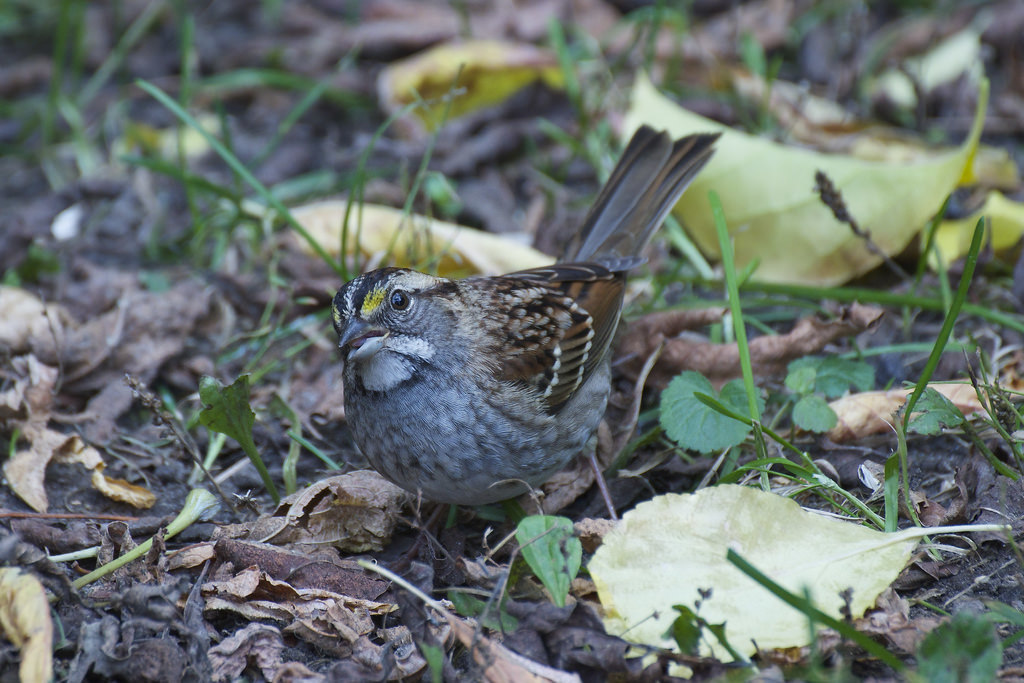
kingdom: Animalia
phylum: Chordata
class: Aves
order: Passeriformes
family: Passerellidae
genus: Zonotrichia
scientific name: Zonotrichia albicollis
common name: White-throated sparrow
